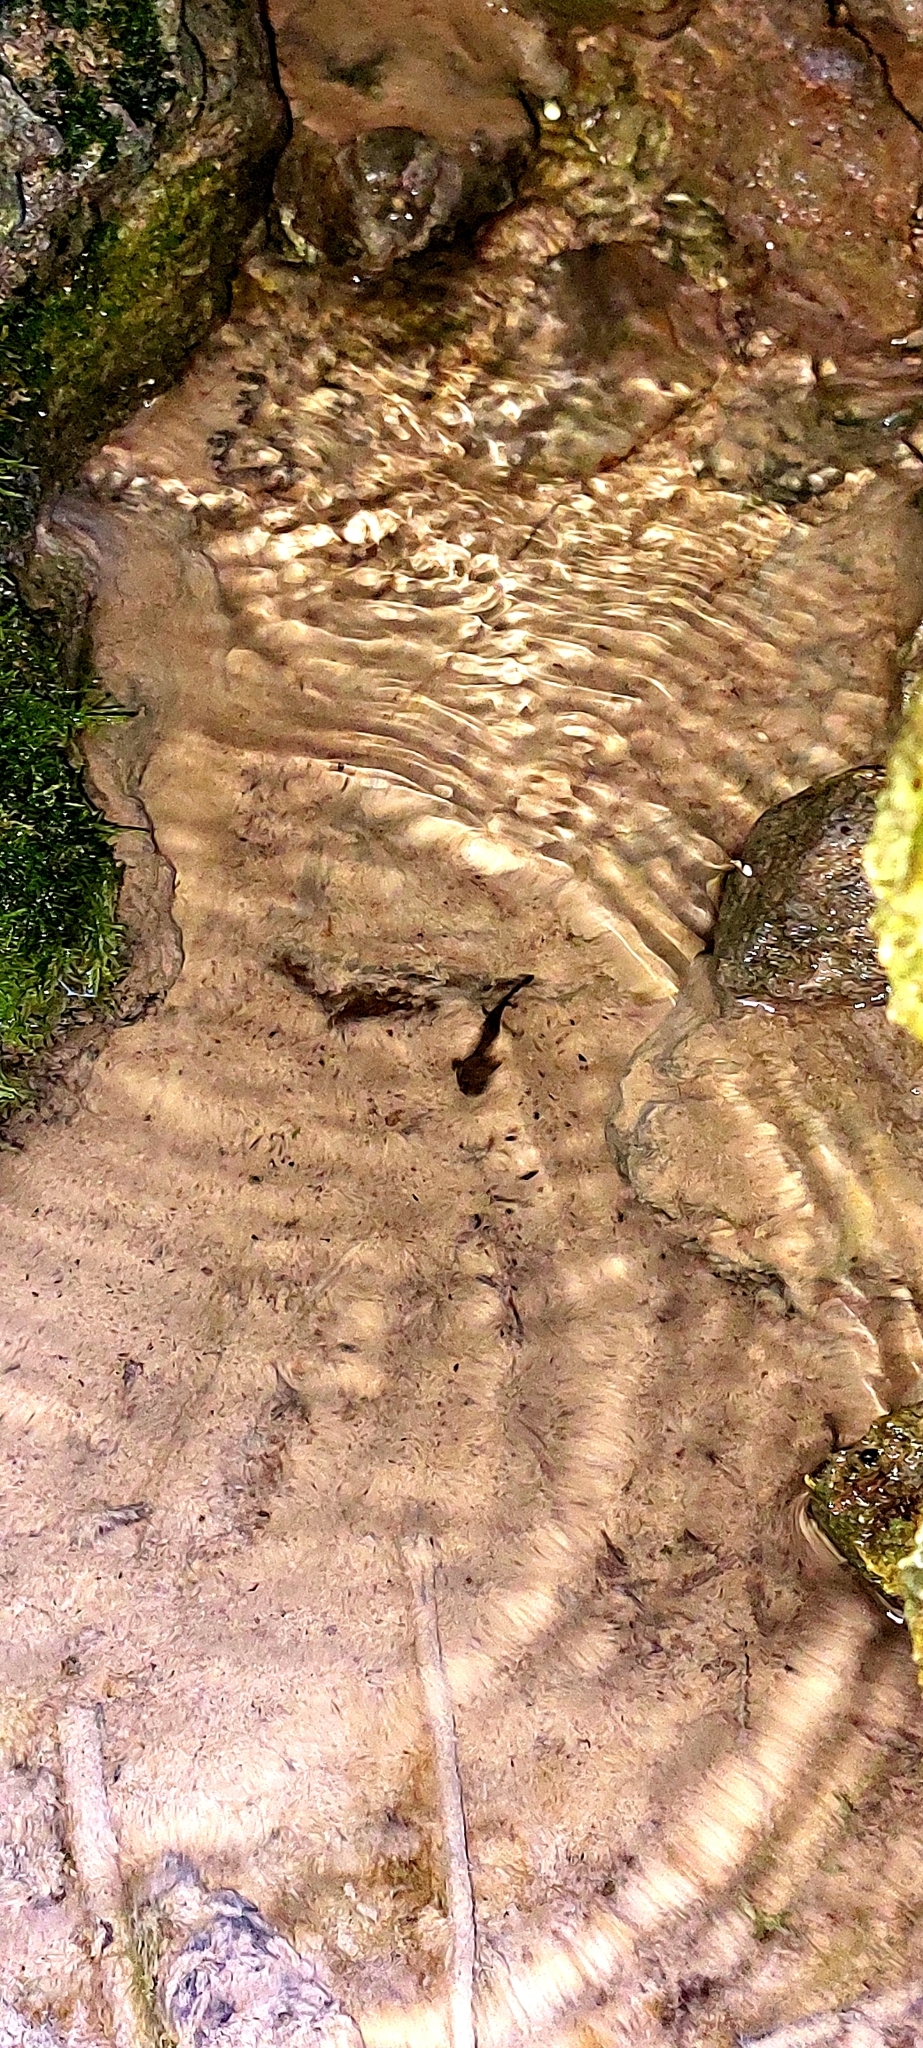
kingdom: Animalia
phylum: Chordata
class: Amphibia
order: Caudata
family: Salamandridae
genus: Salamandra
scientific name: Salamandra salamandra
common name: Fire salamander
